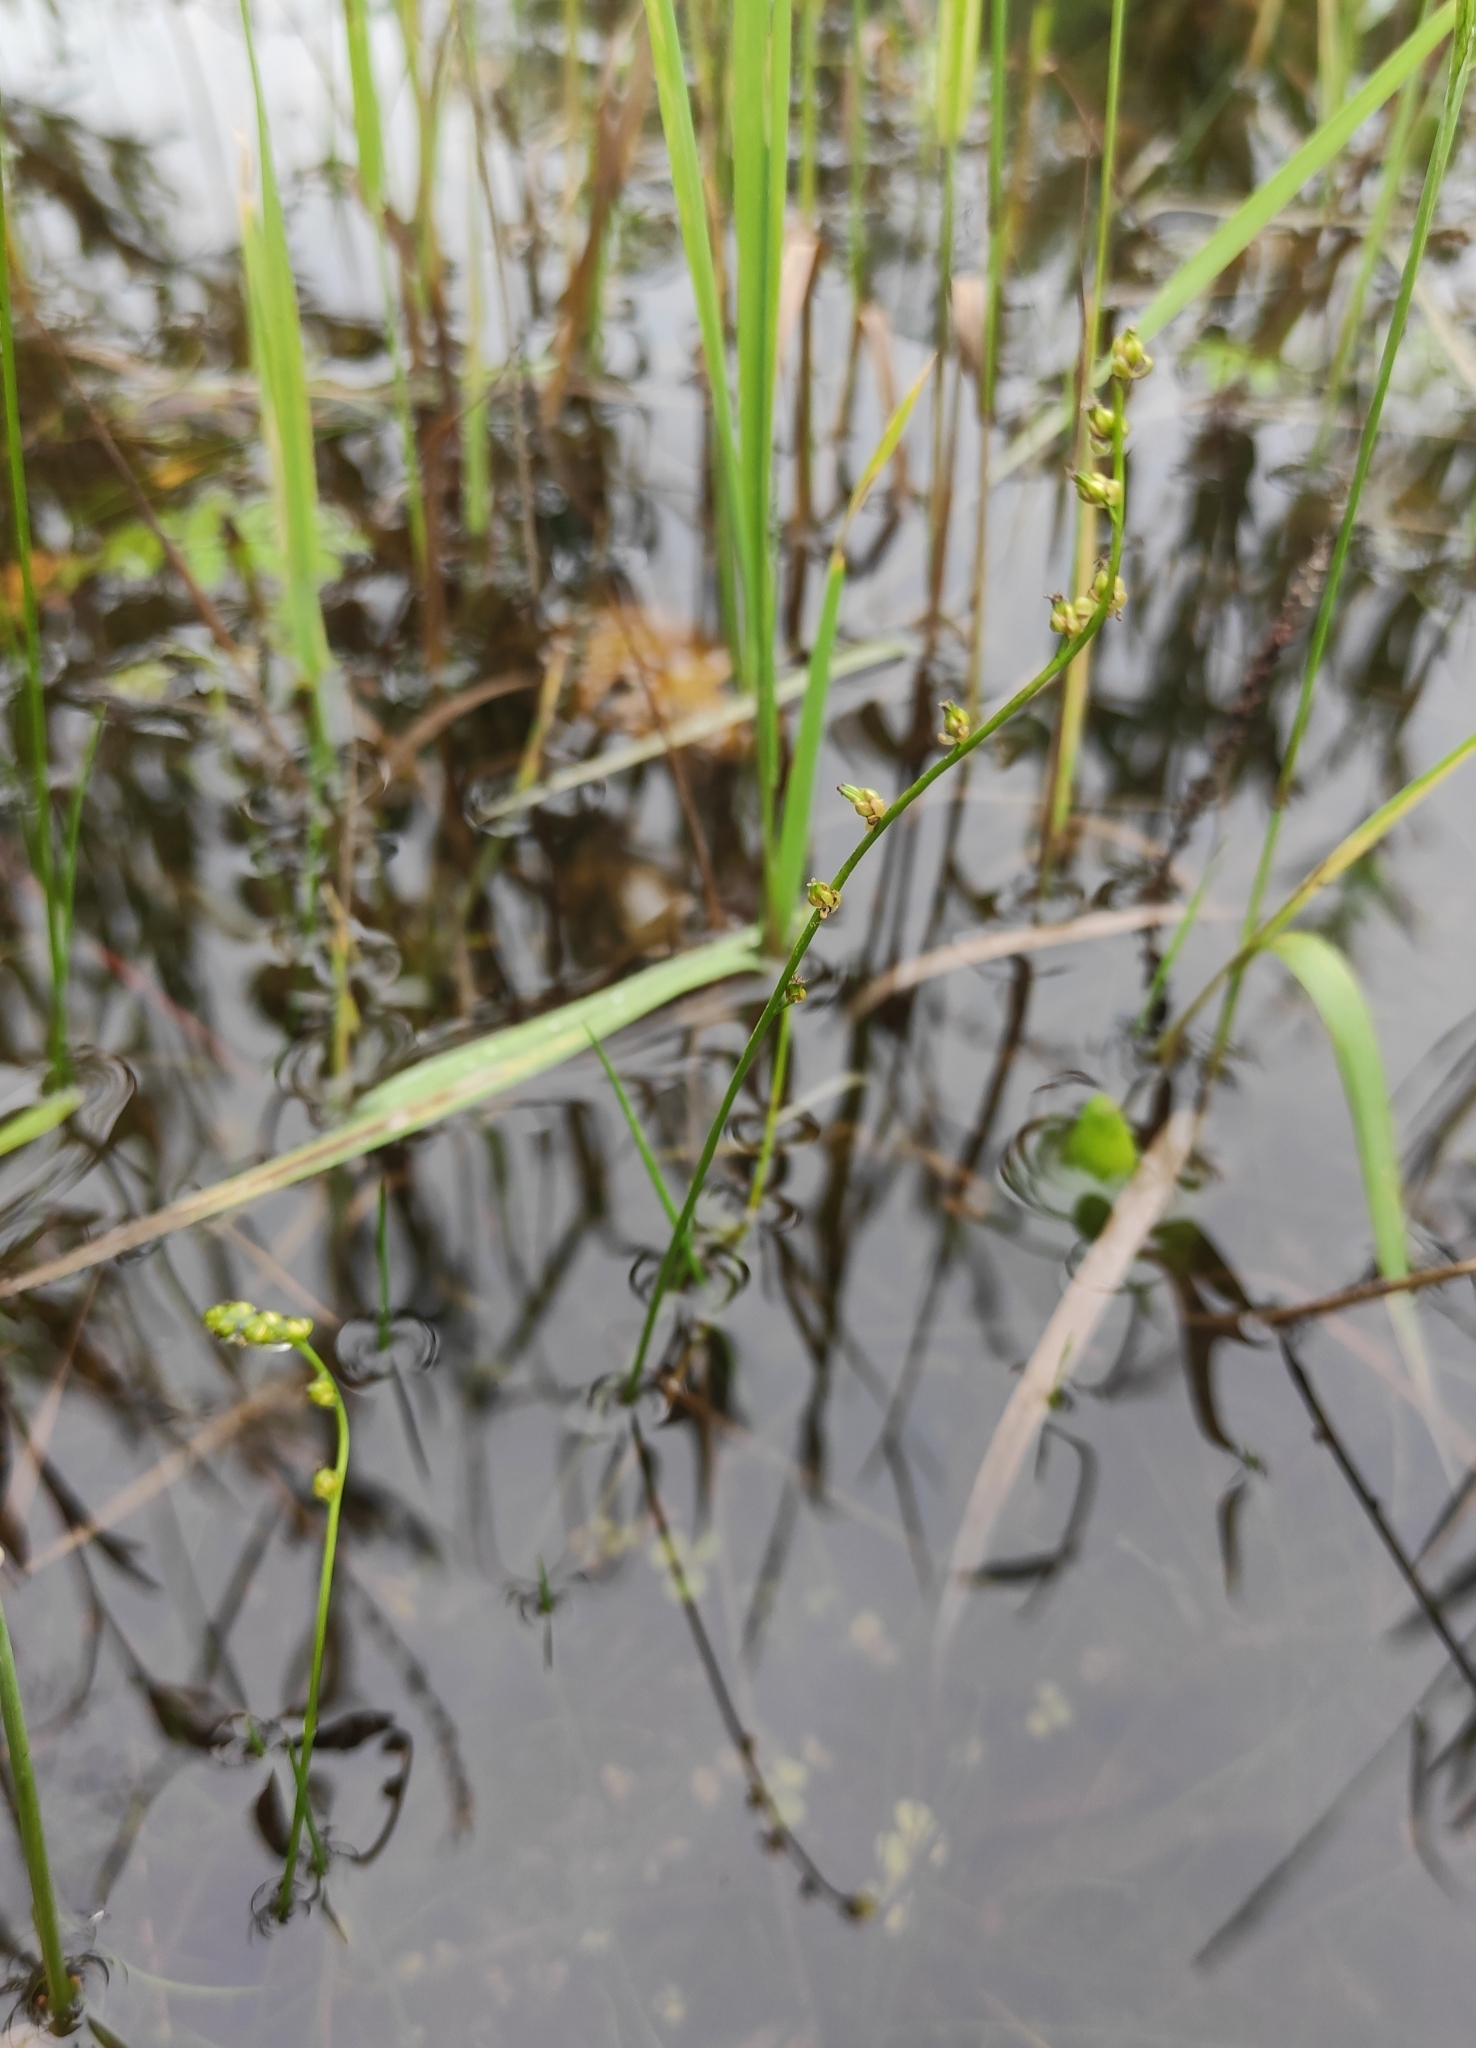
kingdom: Plantae
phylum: Tracheophyta
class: Liliopsida
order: Alismatales
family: Juncaginaceae
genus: Triglochin
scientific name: Triglochin palustris
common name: Marsh arrowgrass
